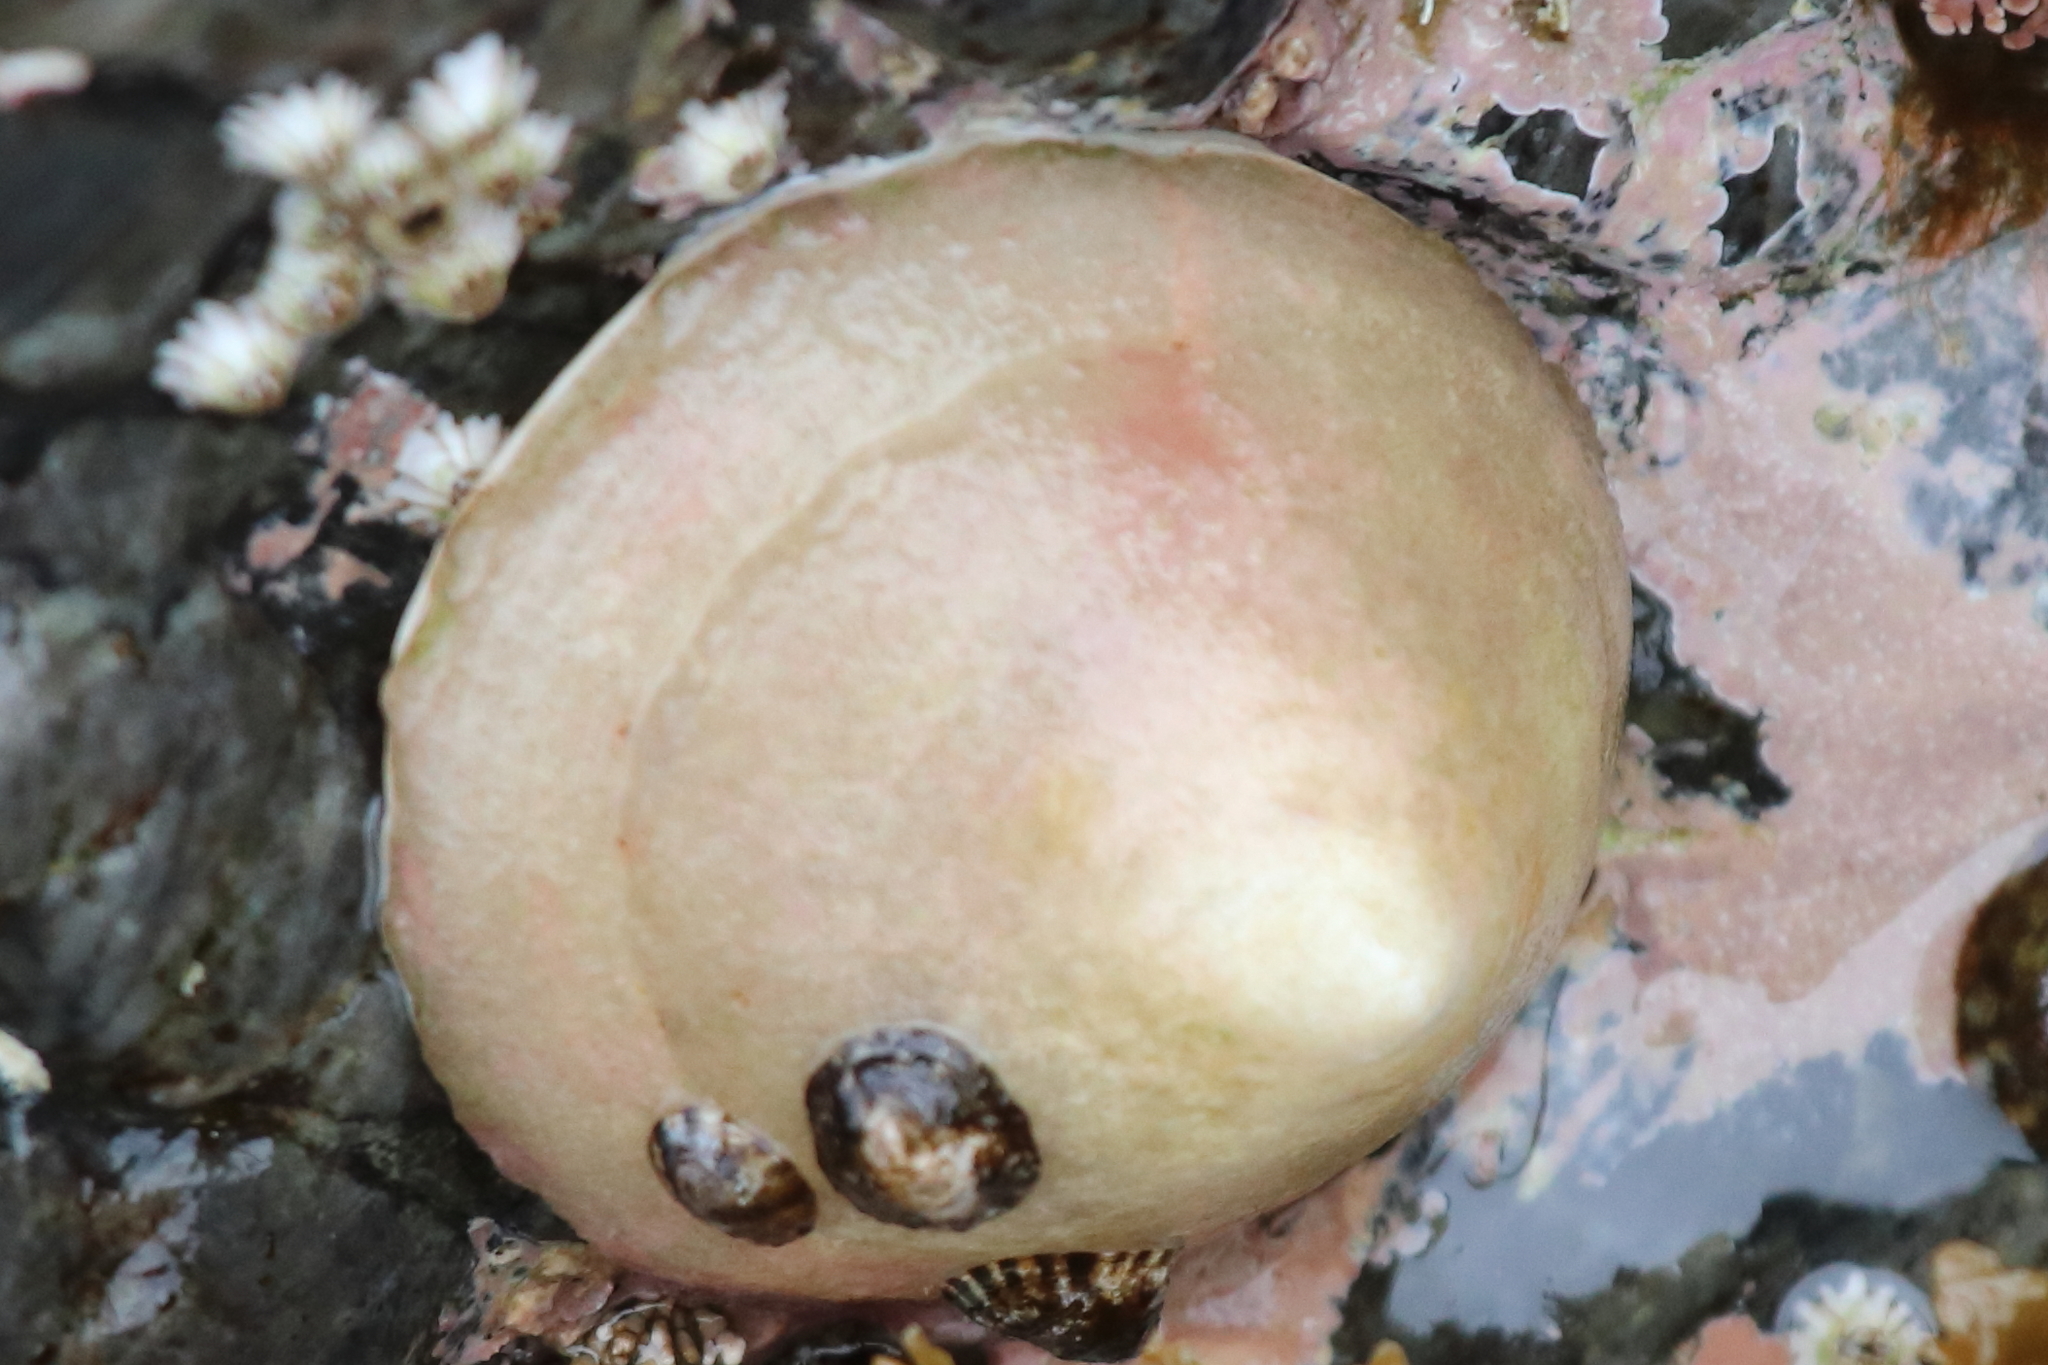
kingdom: Animalia
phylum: Mollusca
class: Gastropoda
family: Acmaeidae
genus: Acmaea
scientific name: Acmaea mitra
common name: Pacific white cap limpet
